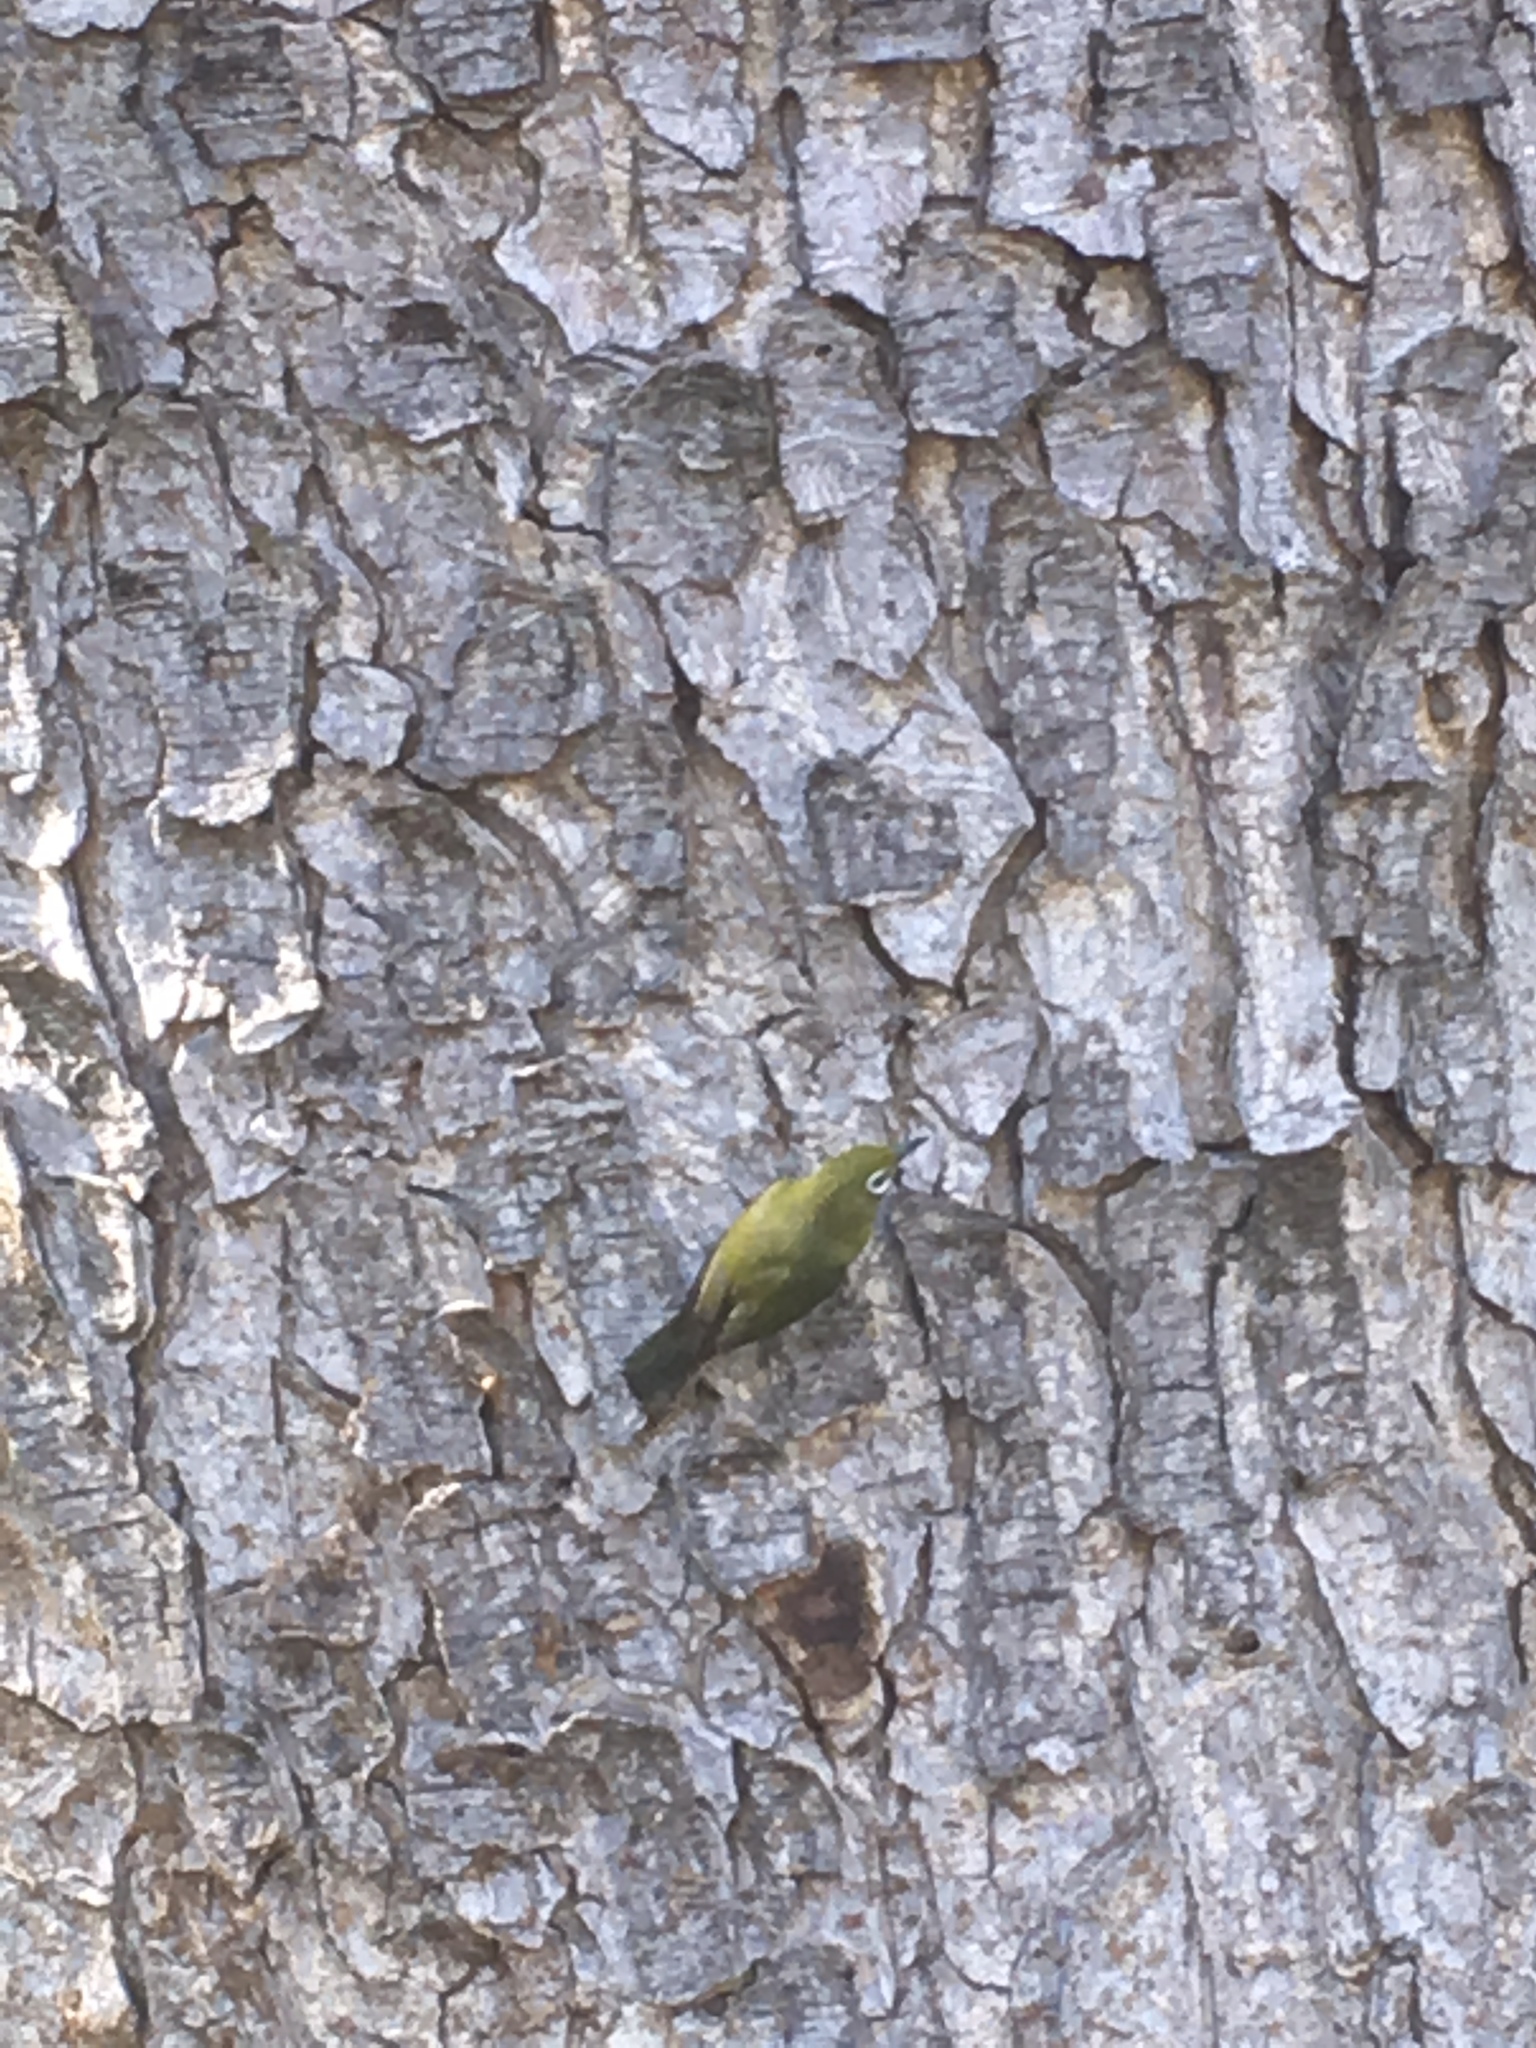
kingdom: Animalia
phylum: Chordata
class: Aves
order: Passeriformes
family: Zosteropidae
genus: Zosterops
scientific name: Zosterops japonicus
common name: Japanese white-eye
